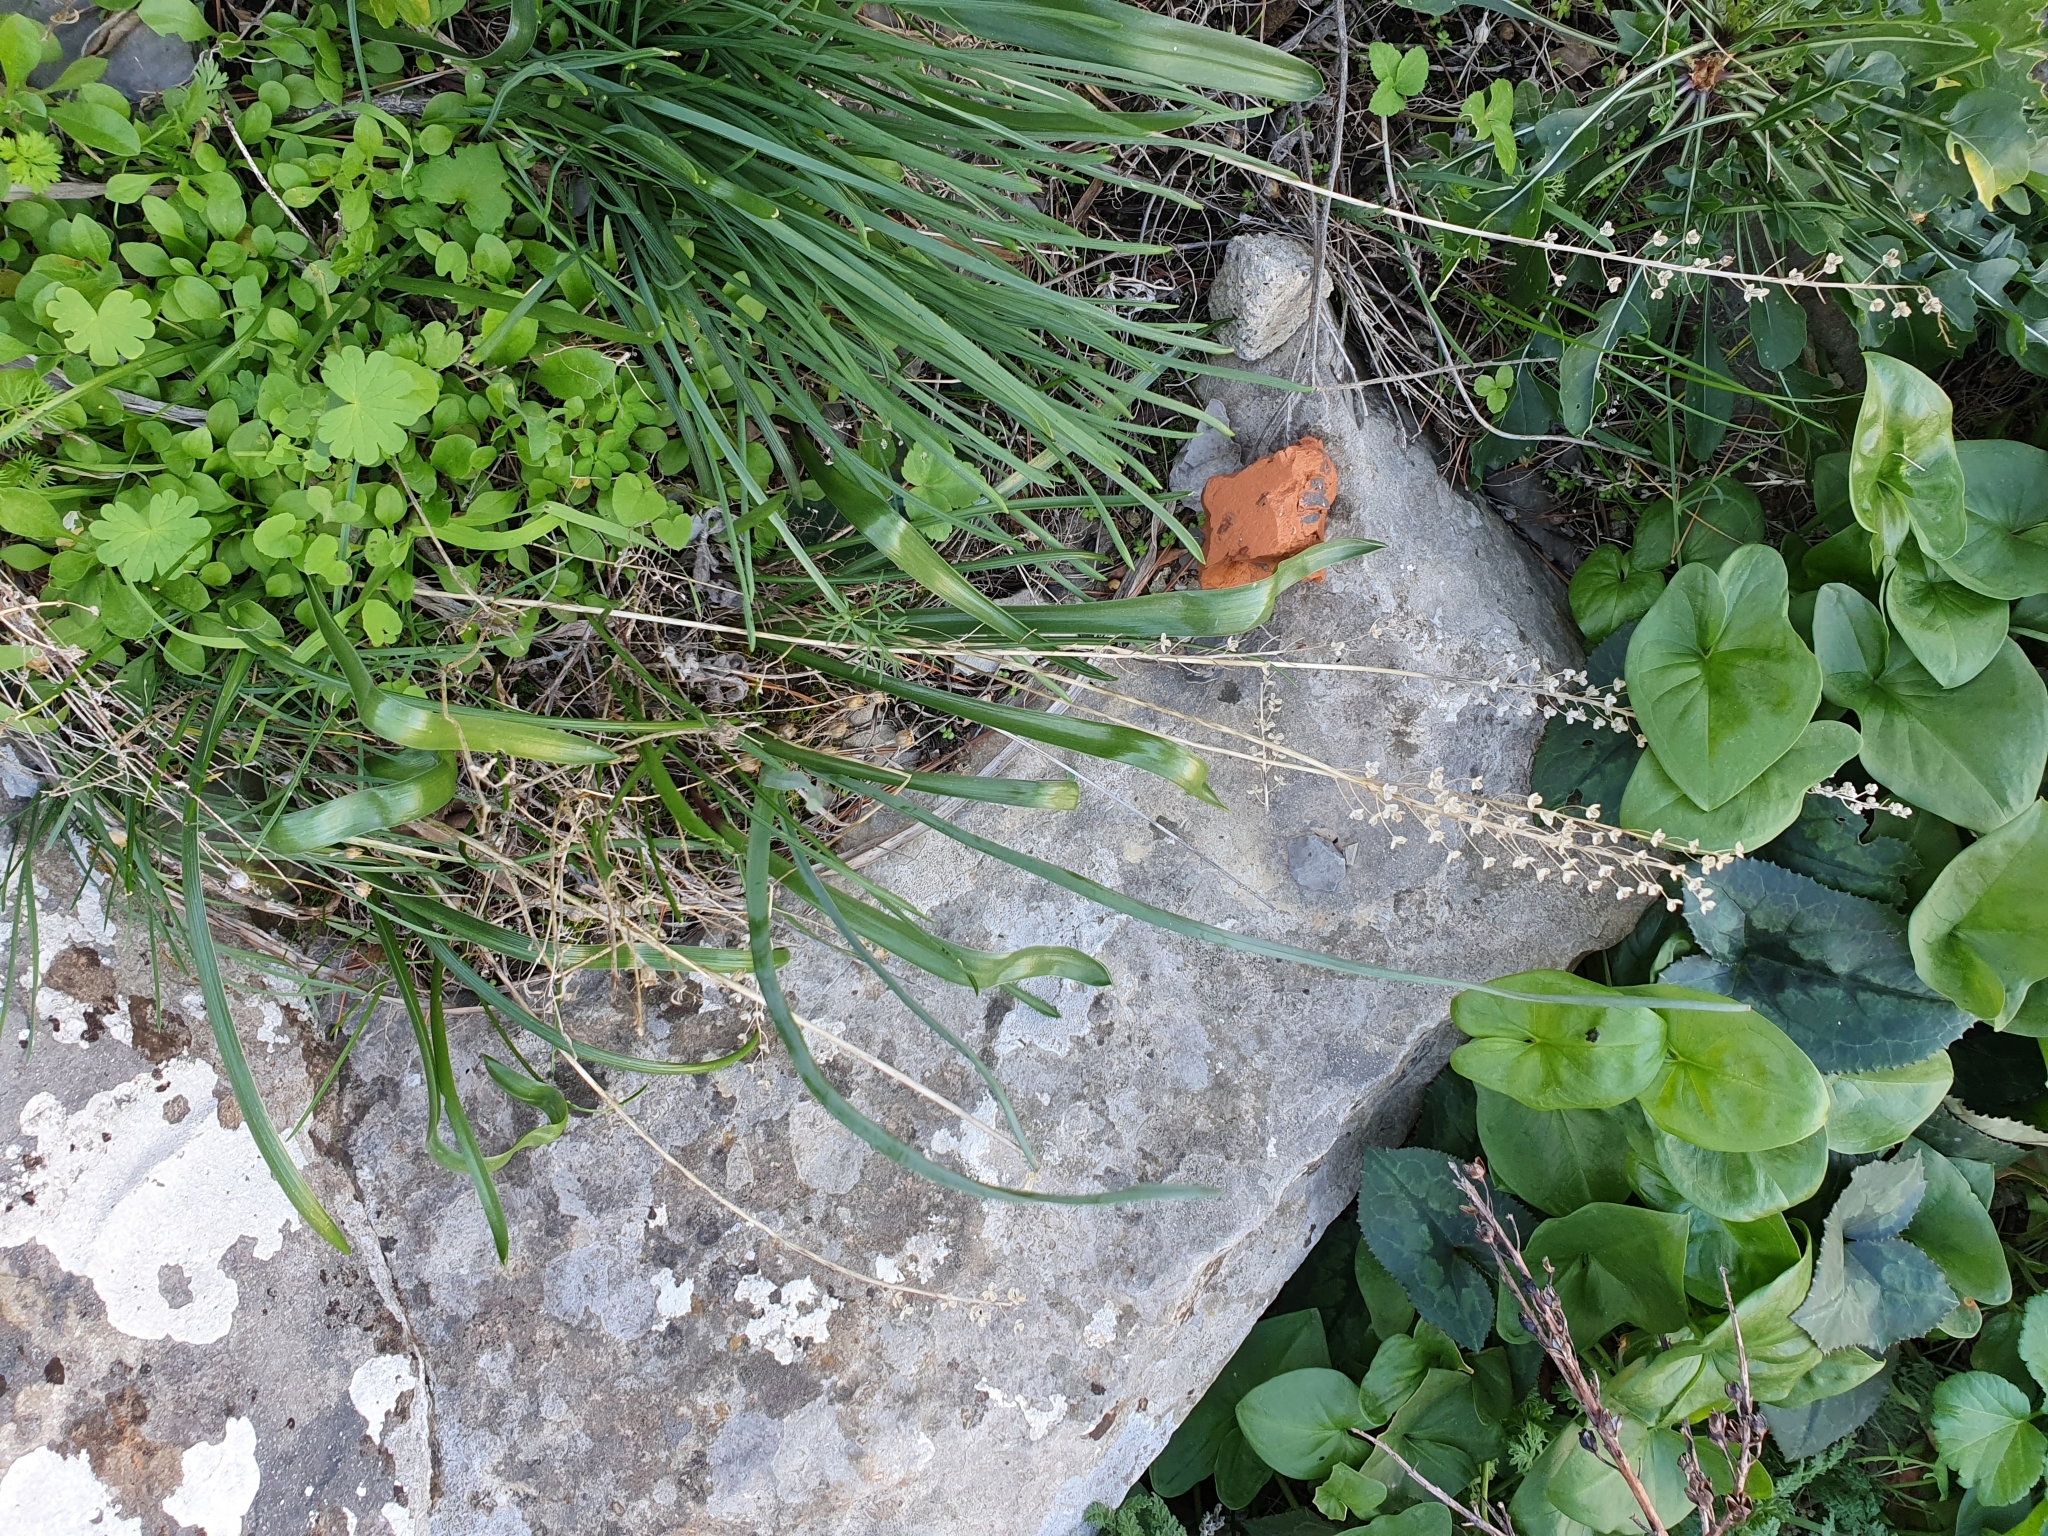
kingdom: Plantae
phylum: Tracheophyta
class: Liliopsida
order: Asparagales
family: Asparagaceae
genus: Prospero
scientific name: Prospero obtusifolium
